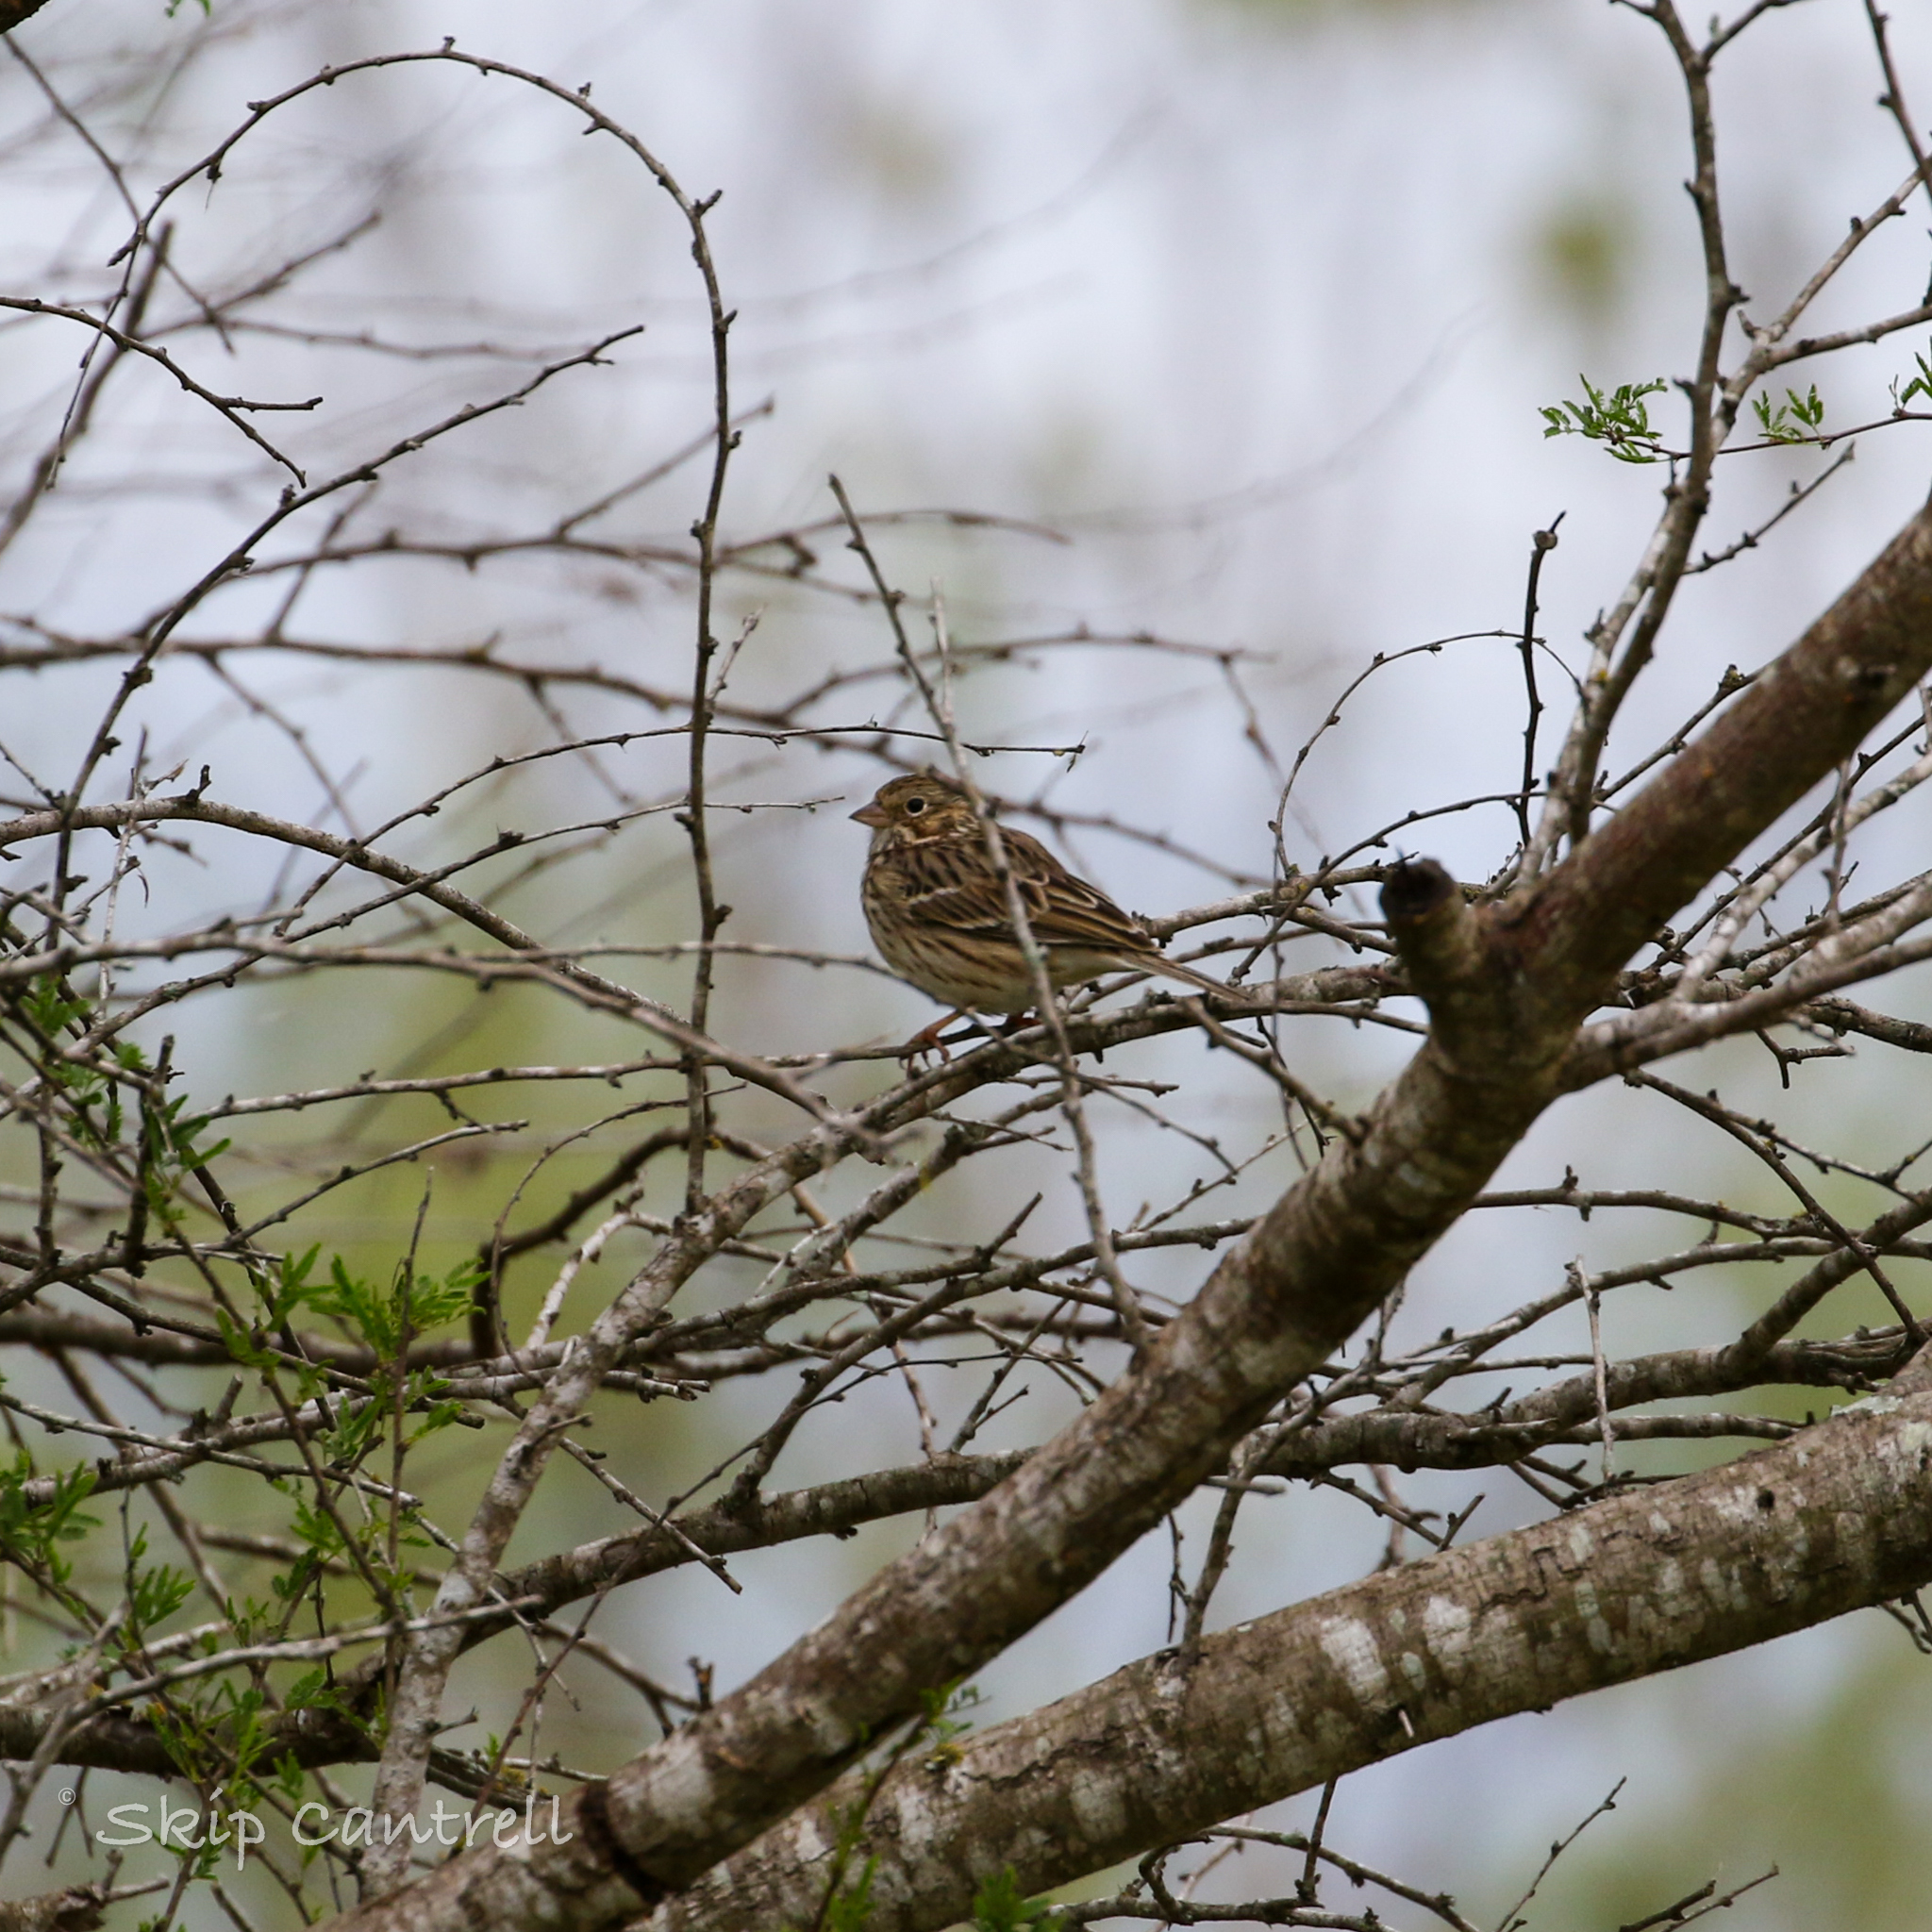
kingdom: Animalia
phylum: Chordata
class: Aves
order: Passeriformes
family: Passerellidae
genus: Pooecetes
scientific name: Pooecetes gramineus
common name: Vesper sparrow
